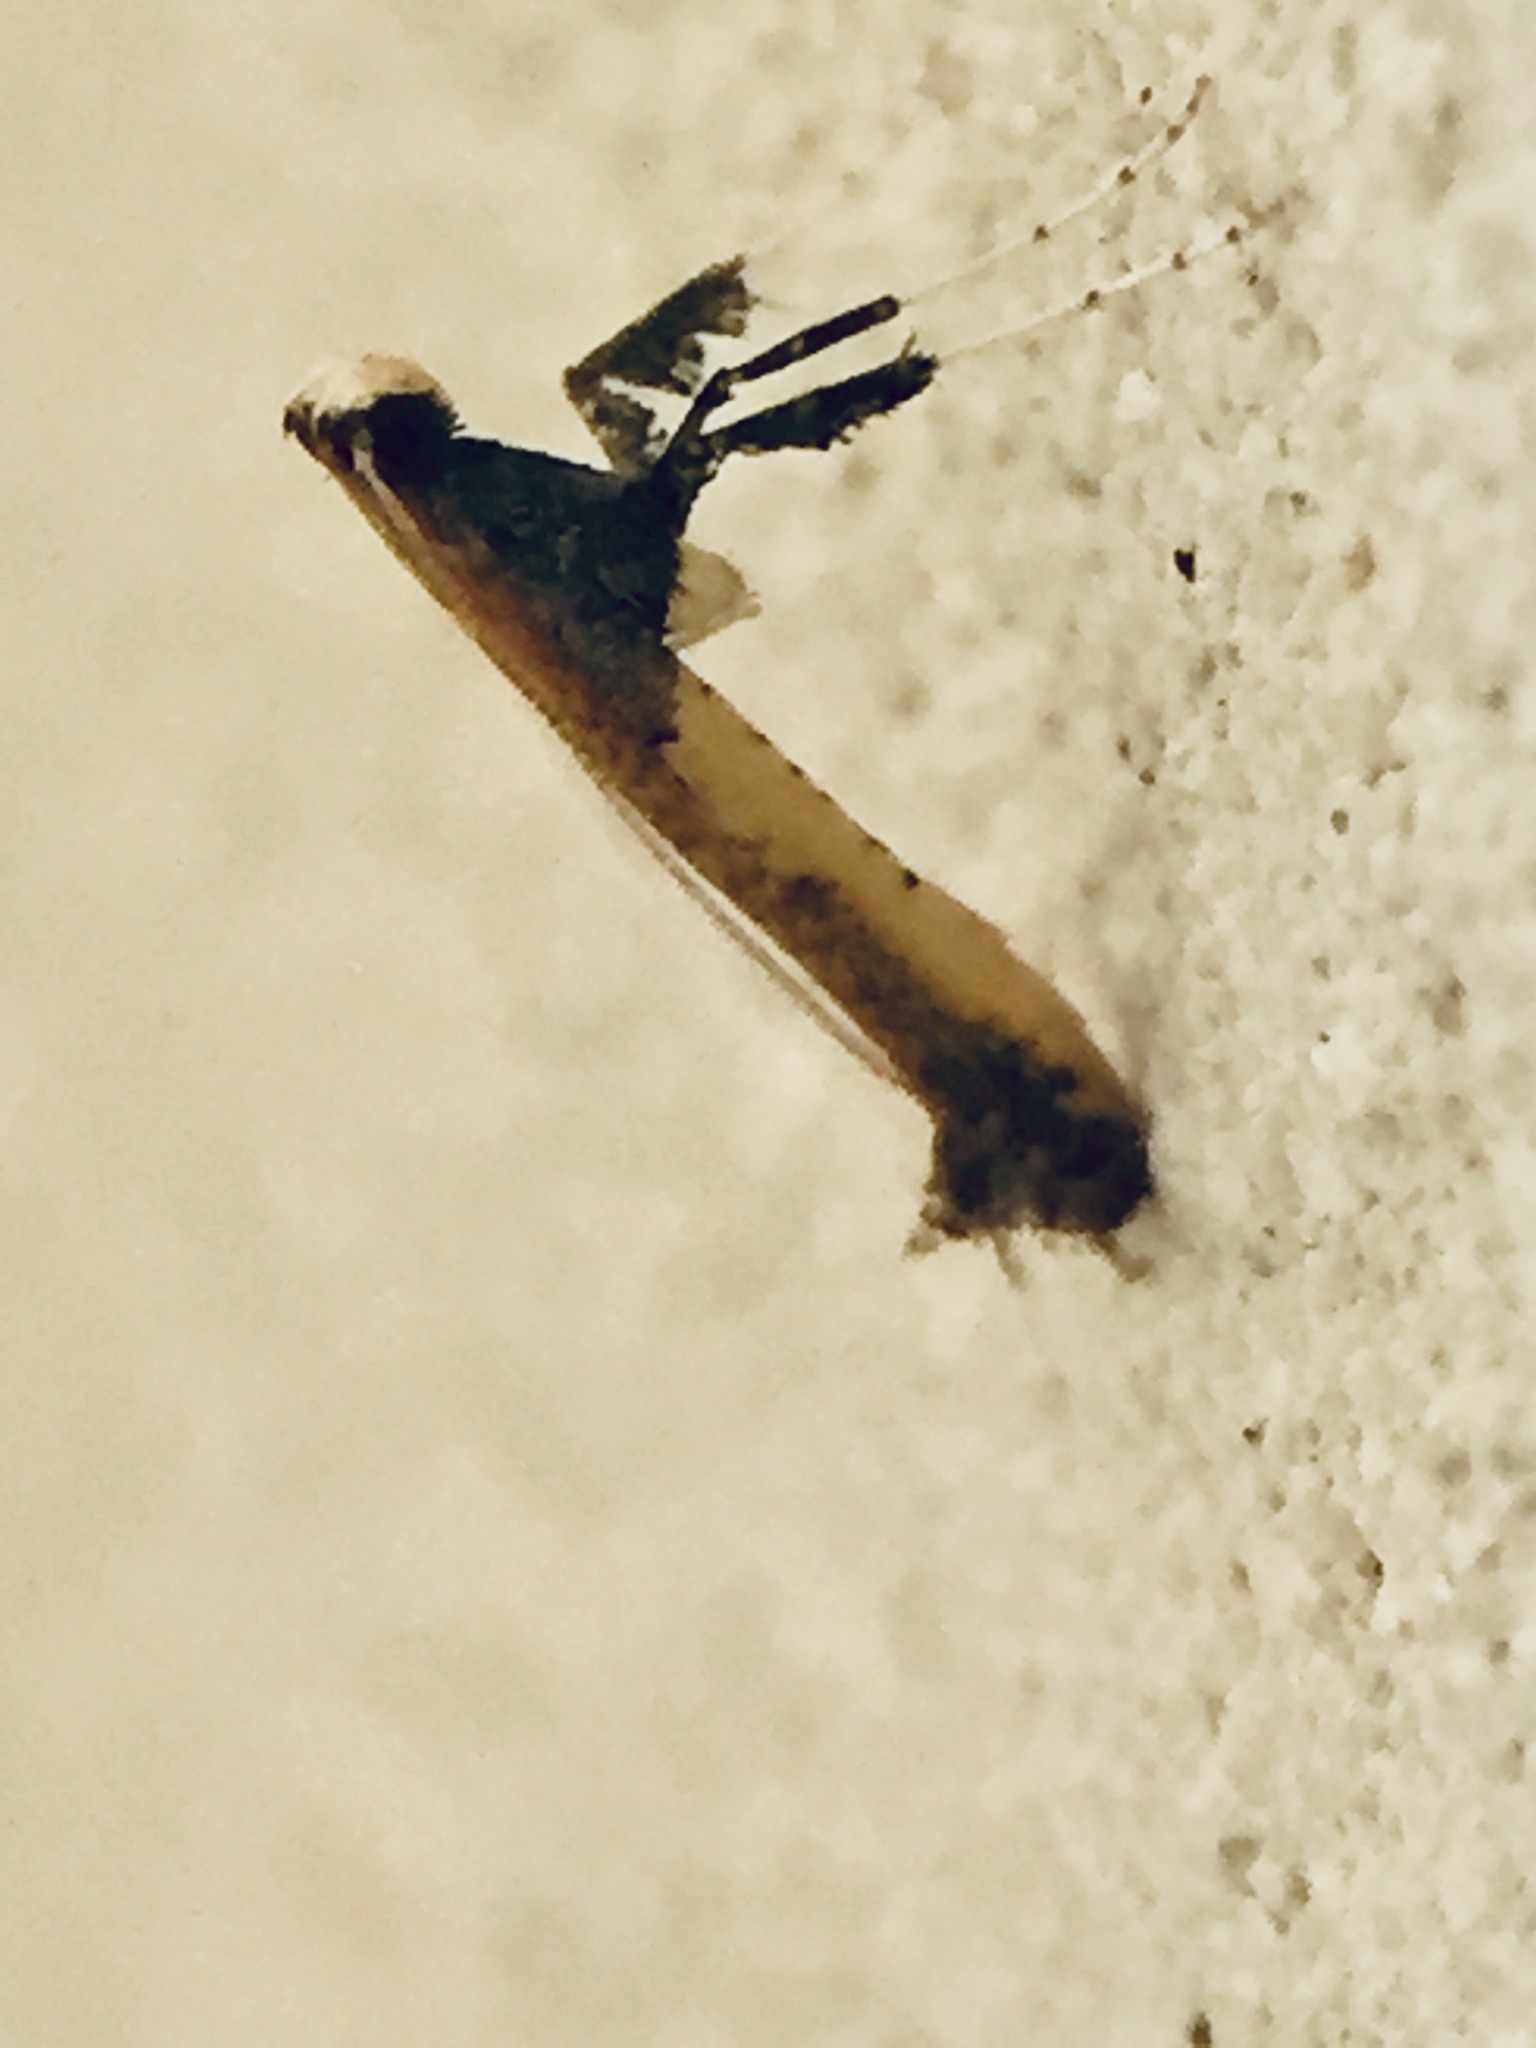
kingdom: Animalia
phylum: Arthropoda
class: Insecta
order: Lepidoptera
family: Gracillariidae
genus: Caloptilia
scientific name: Caloptilia azaleella
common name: Azalea leafminer
